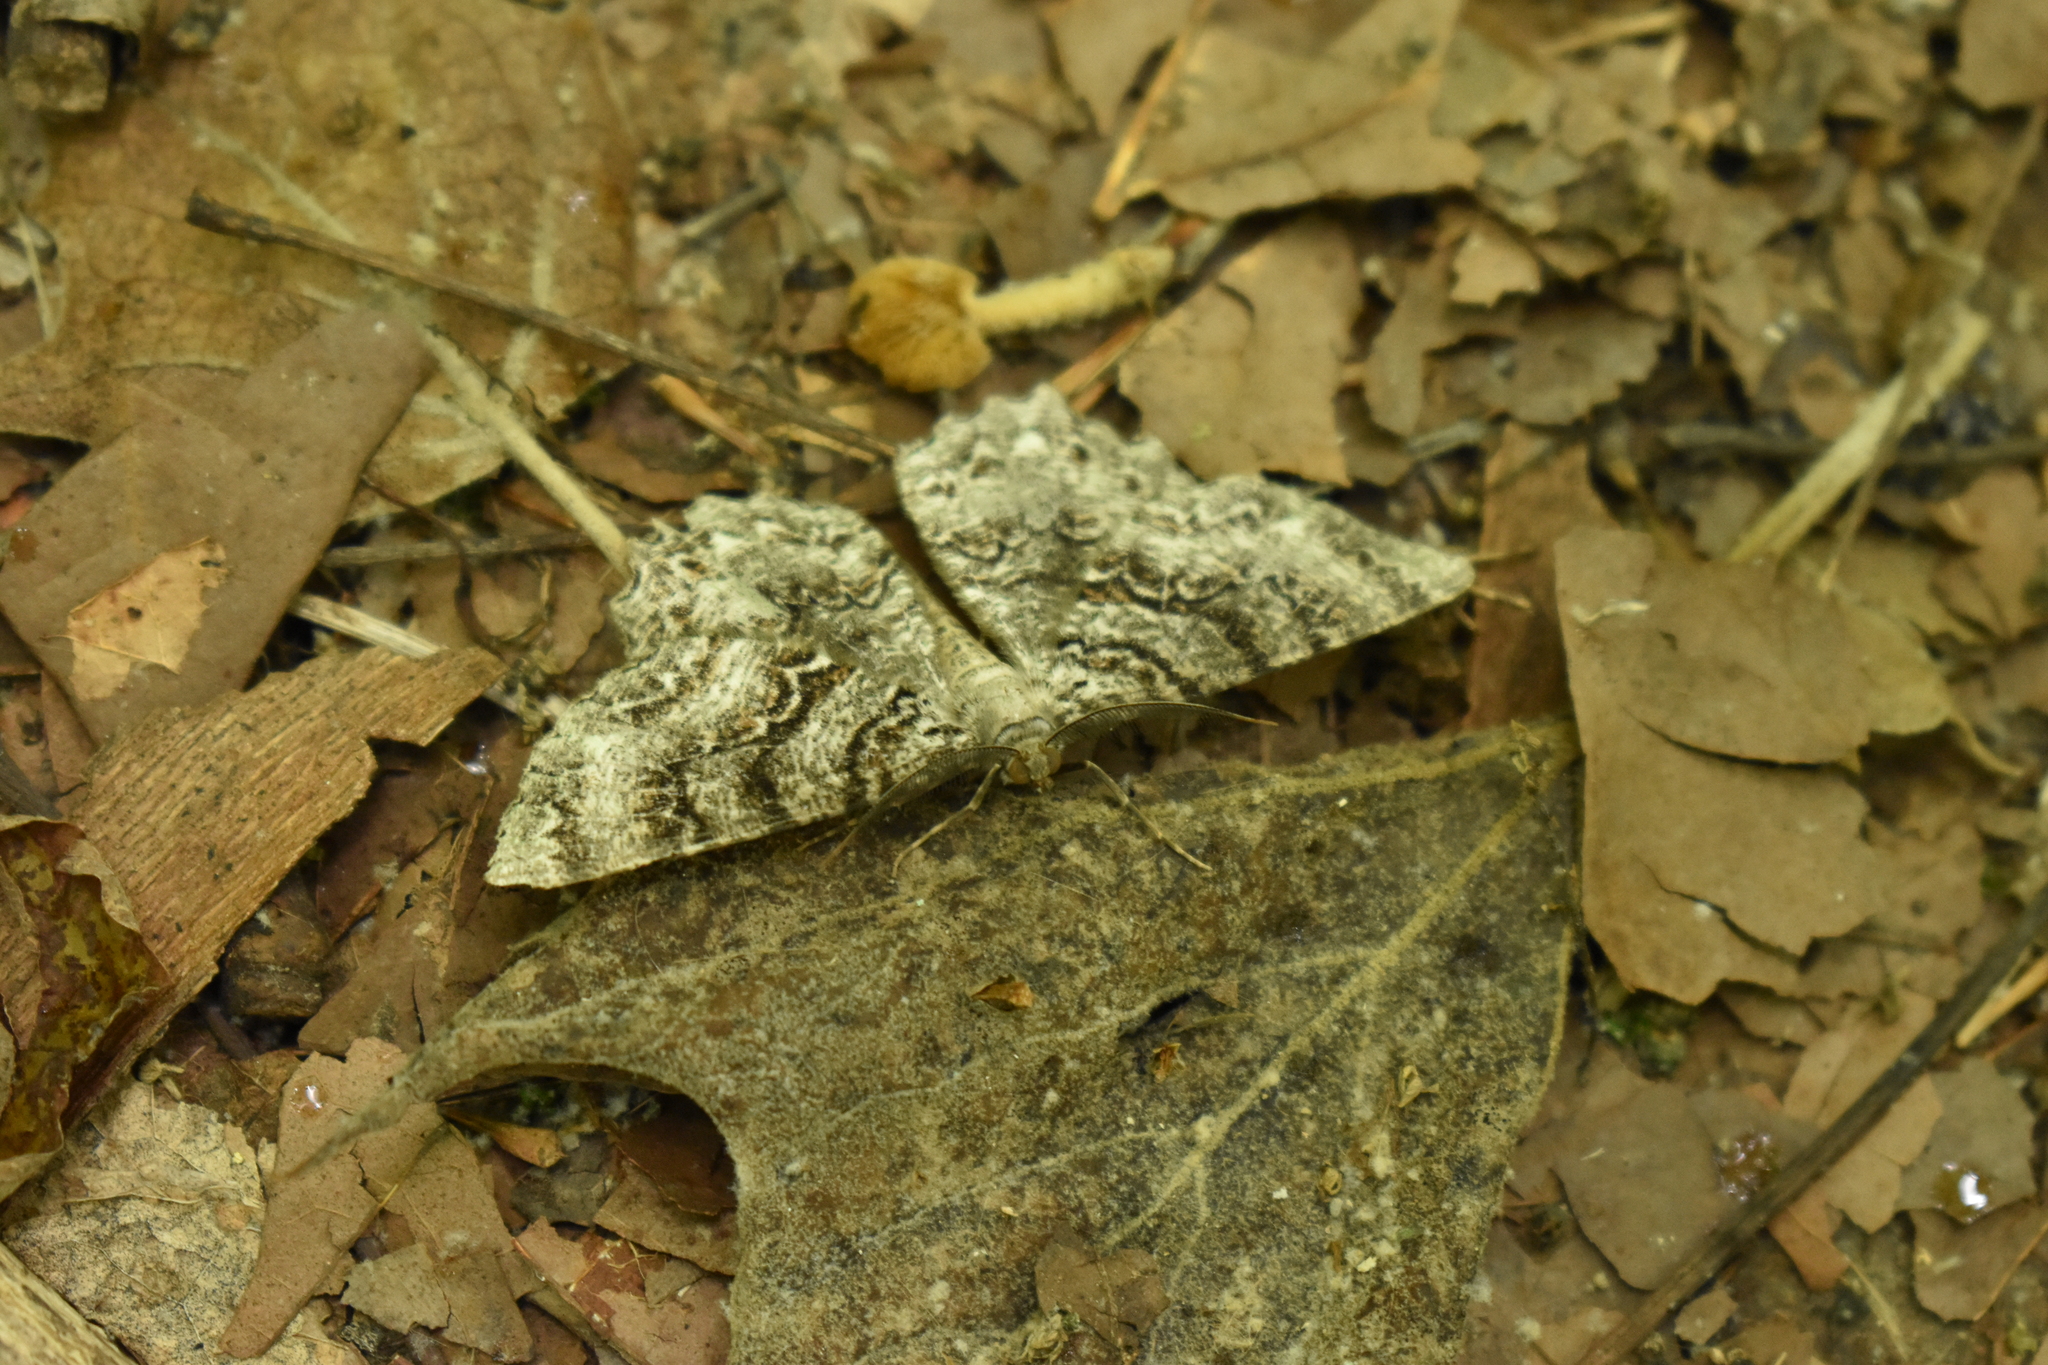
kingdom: Animalia
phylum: Arthropoda
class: Insecta
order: Lepidoptera
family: Geometridae
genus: Epimecis
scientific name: Epimecis hortaria
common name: Tulip-tree beauty
